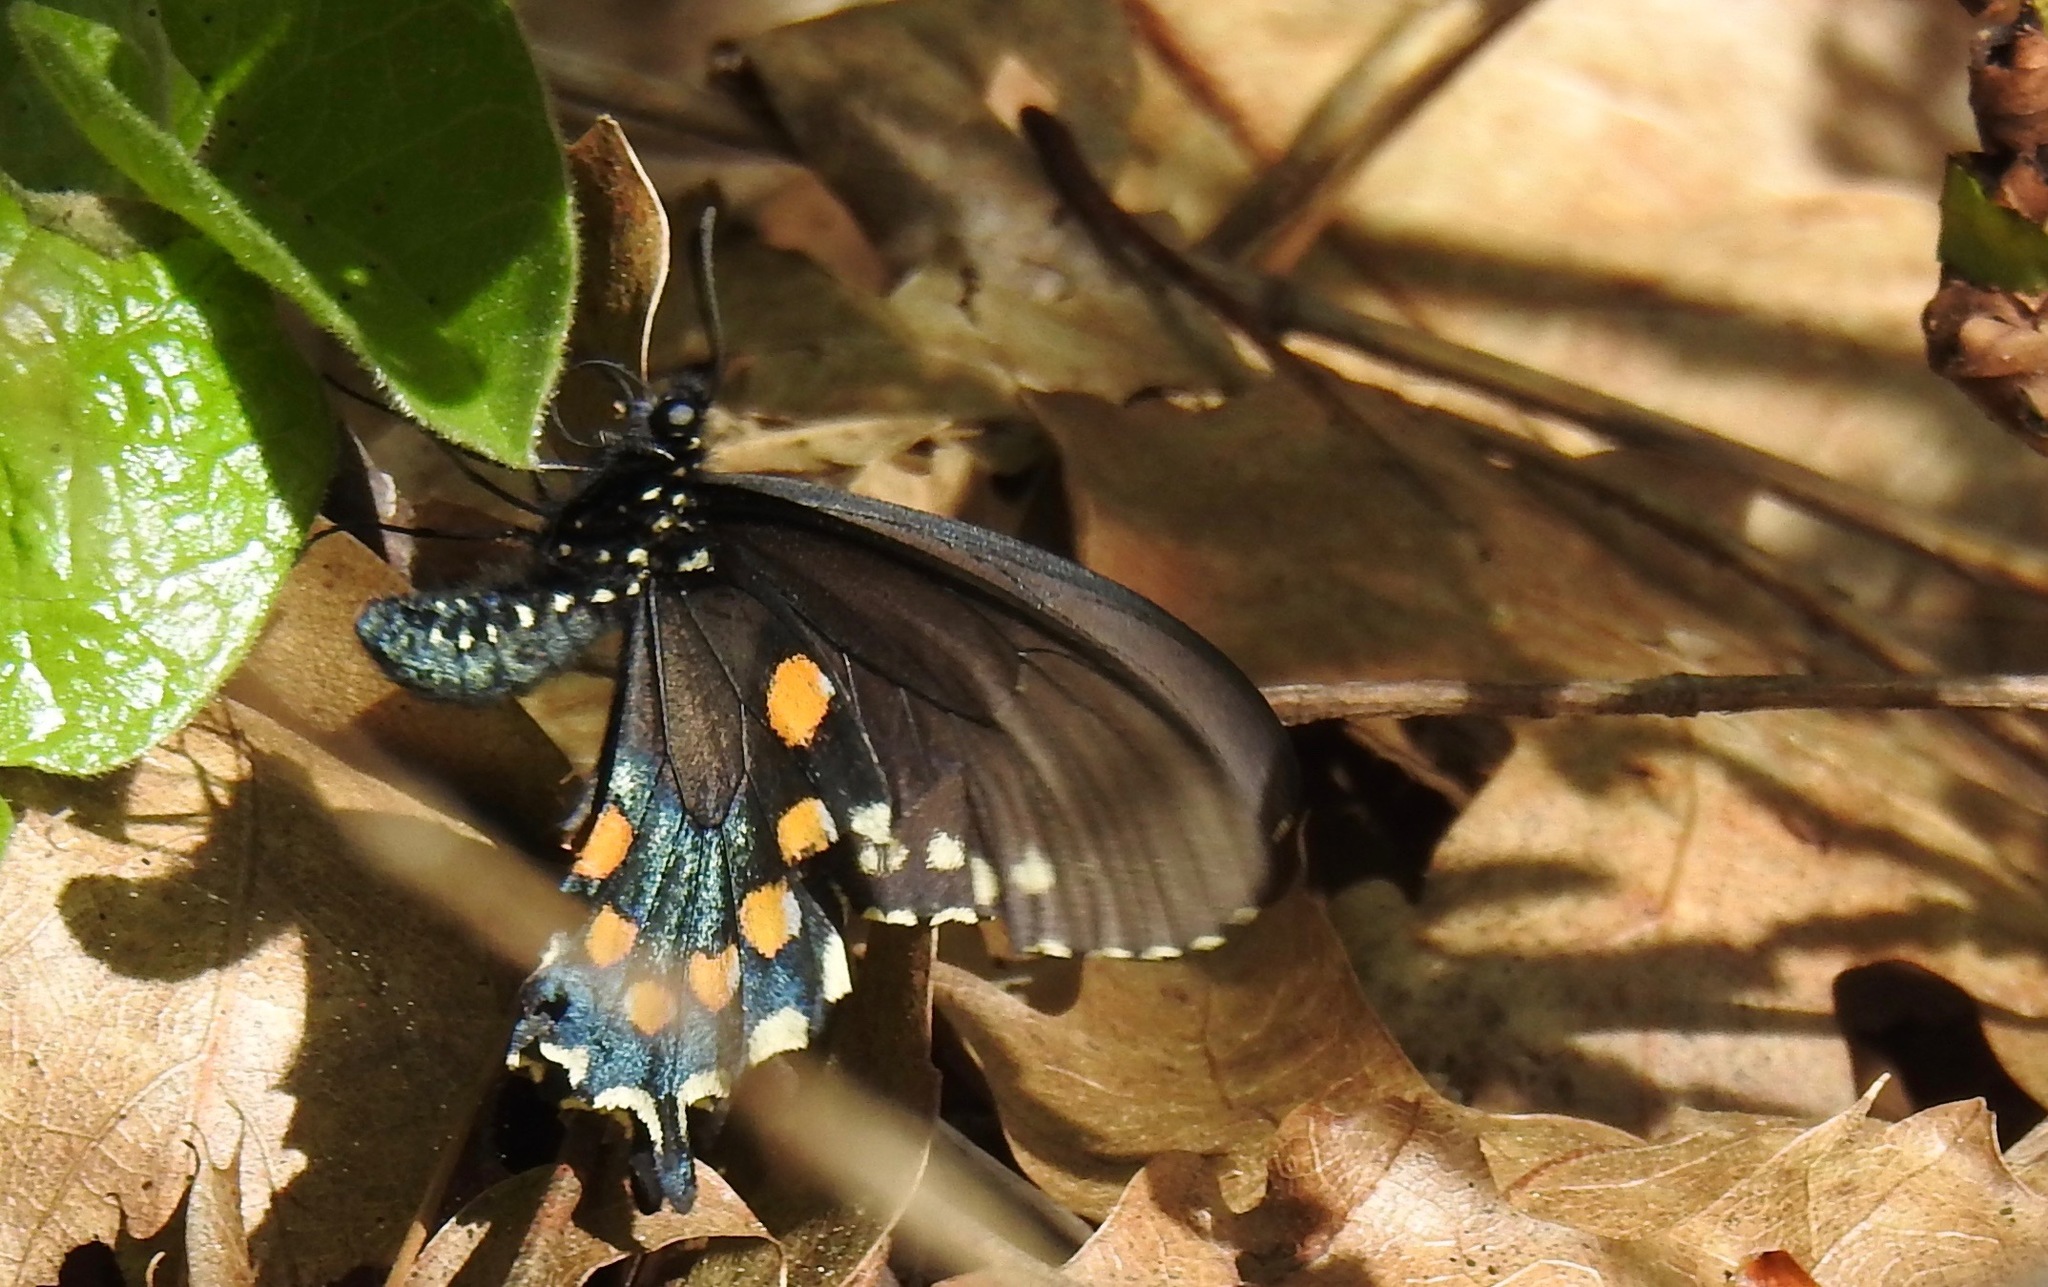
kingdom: Animalia
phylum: Arthropoda
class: Insecta
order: Lepidoptera
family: Papilionidae
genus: Battus
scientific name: Battus philenor
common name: Pipevine swallowtail
